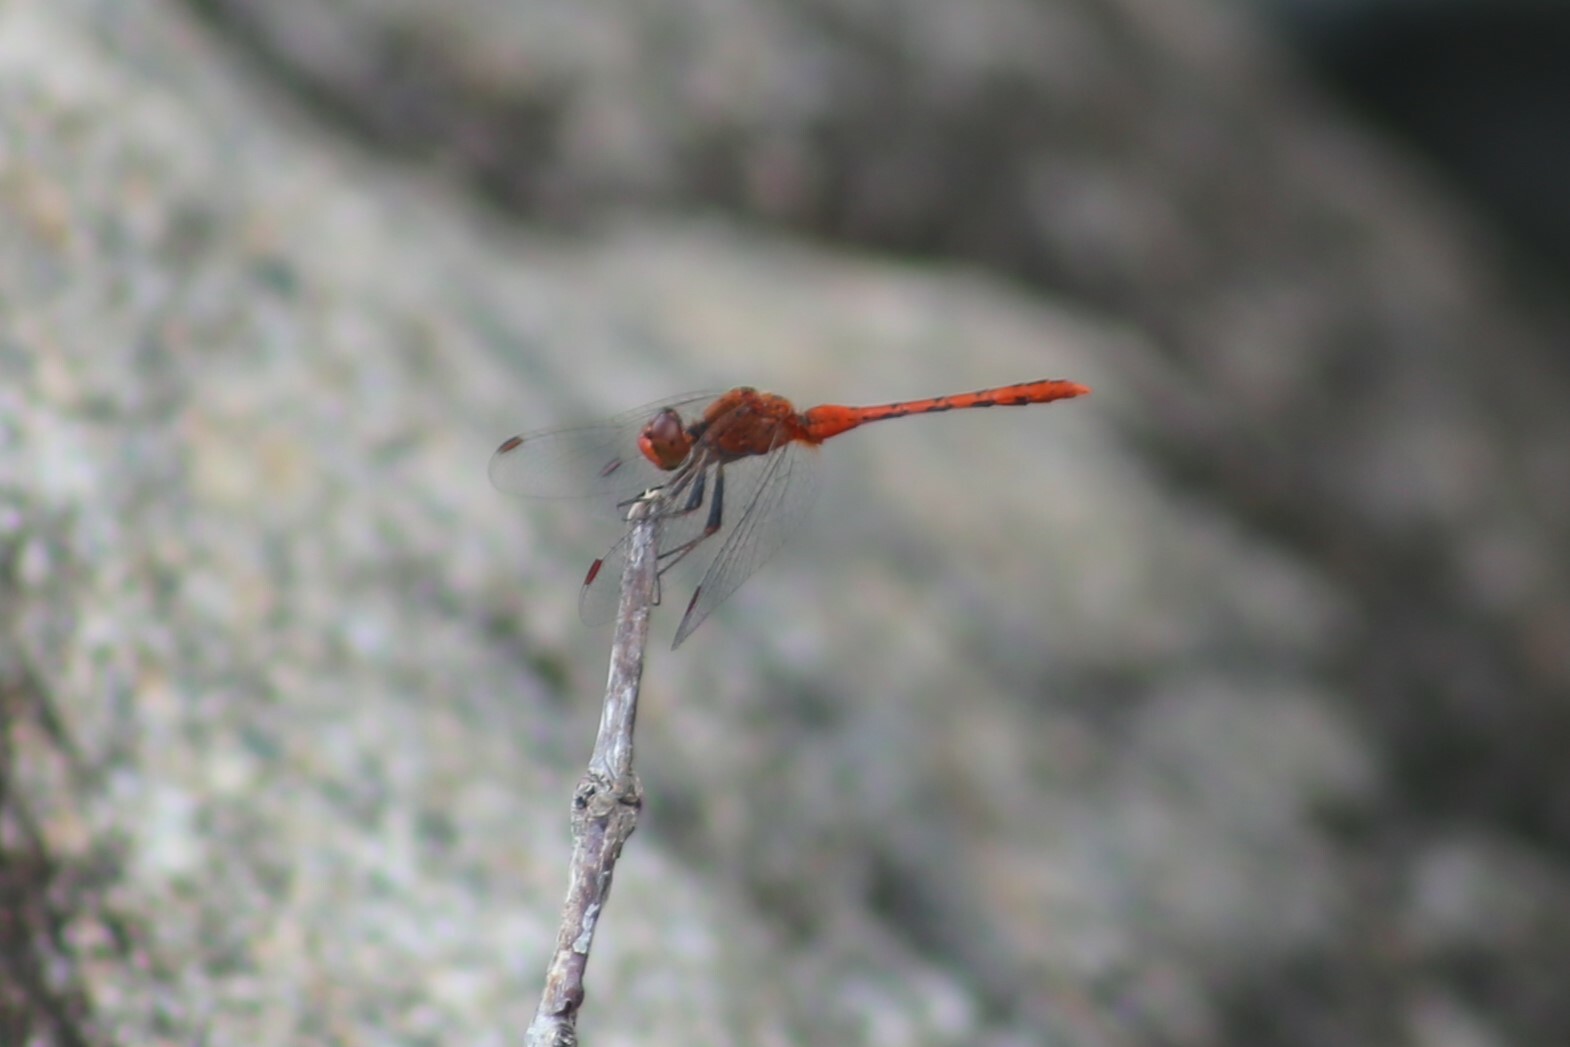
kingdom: Animalia
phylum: Arthropoda
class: Insecta
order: Odonata
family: Libellulidae
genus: Diplacodes
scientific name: Diplacodes bipunctata
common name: Red percher dragonfly
